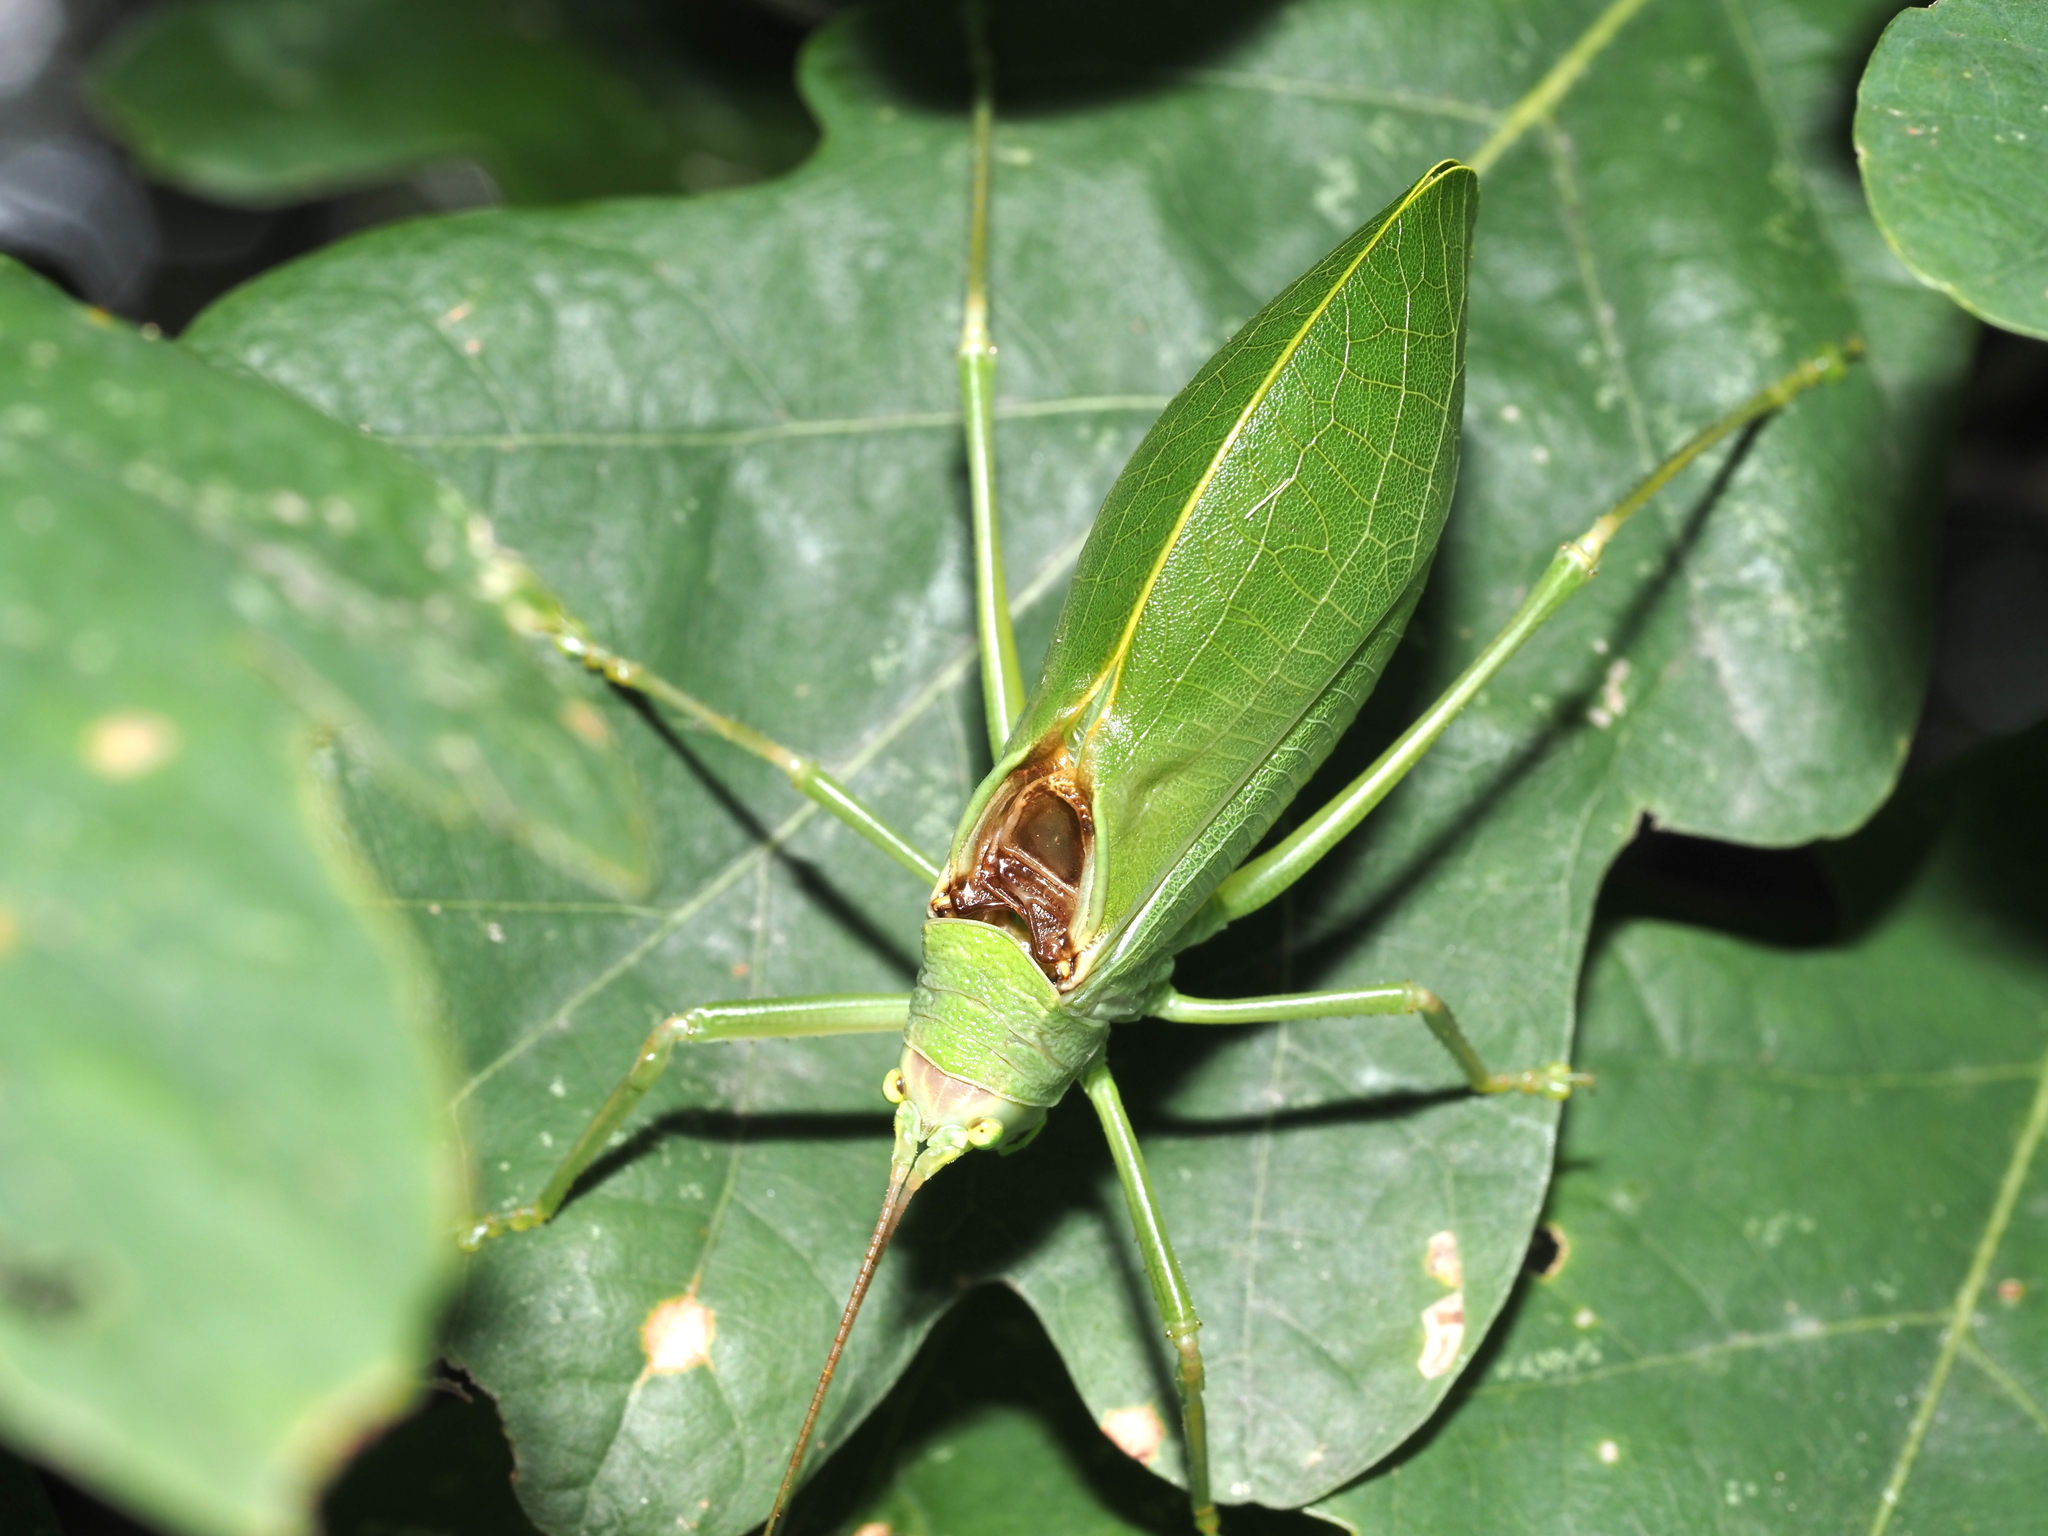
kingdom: Animalia
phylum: Arthropoda
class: Insecta
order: Orthoptera
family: Tettigoniidae
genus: Pterophylla
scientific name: Pterophylla camellifolia
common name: Common true katydid
